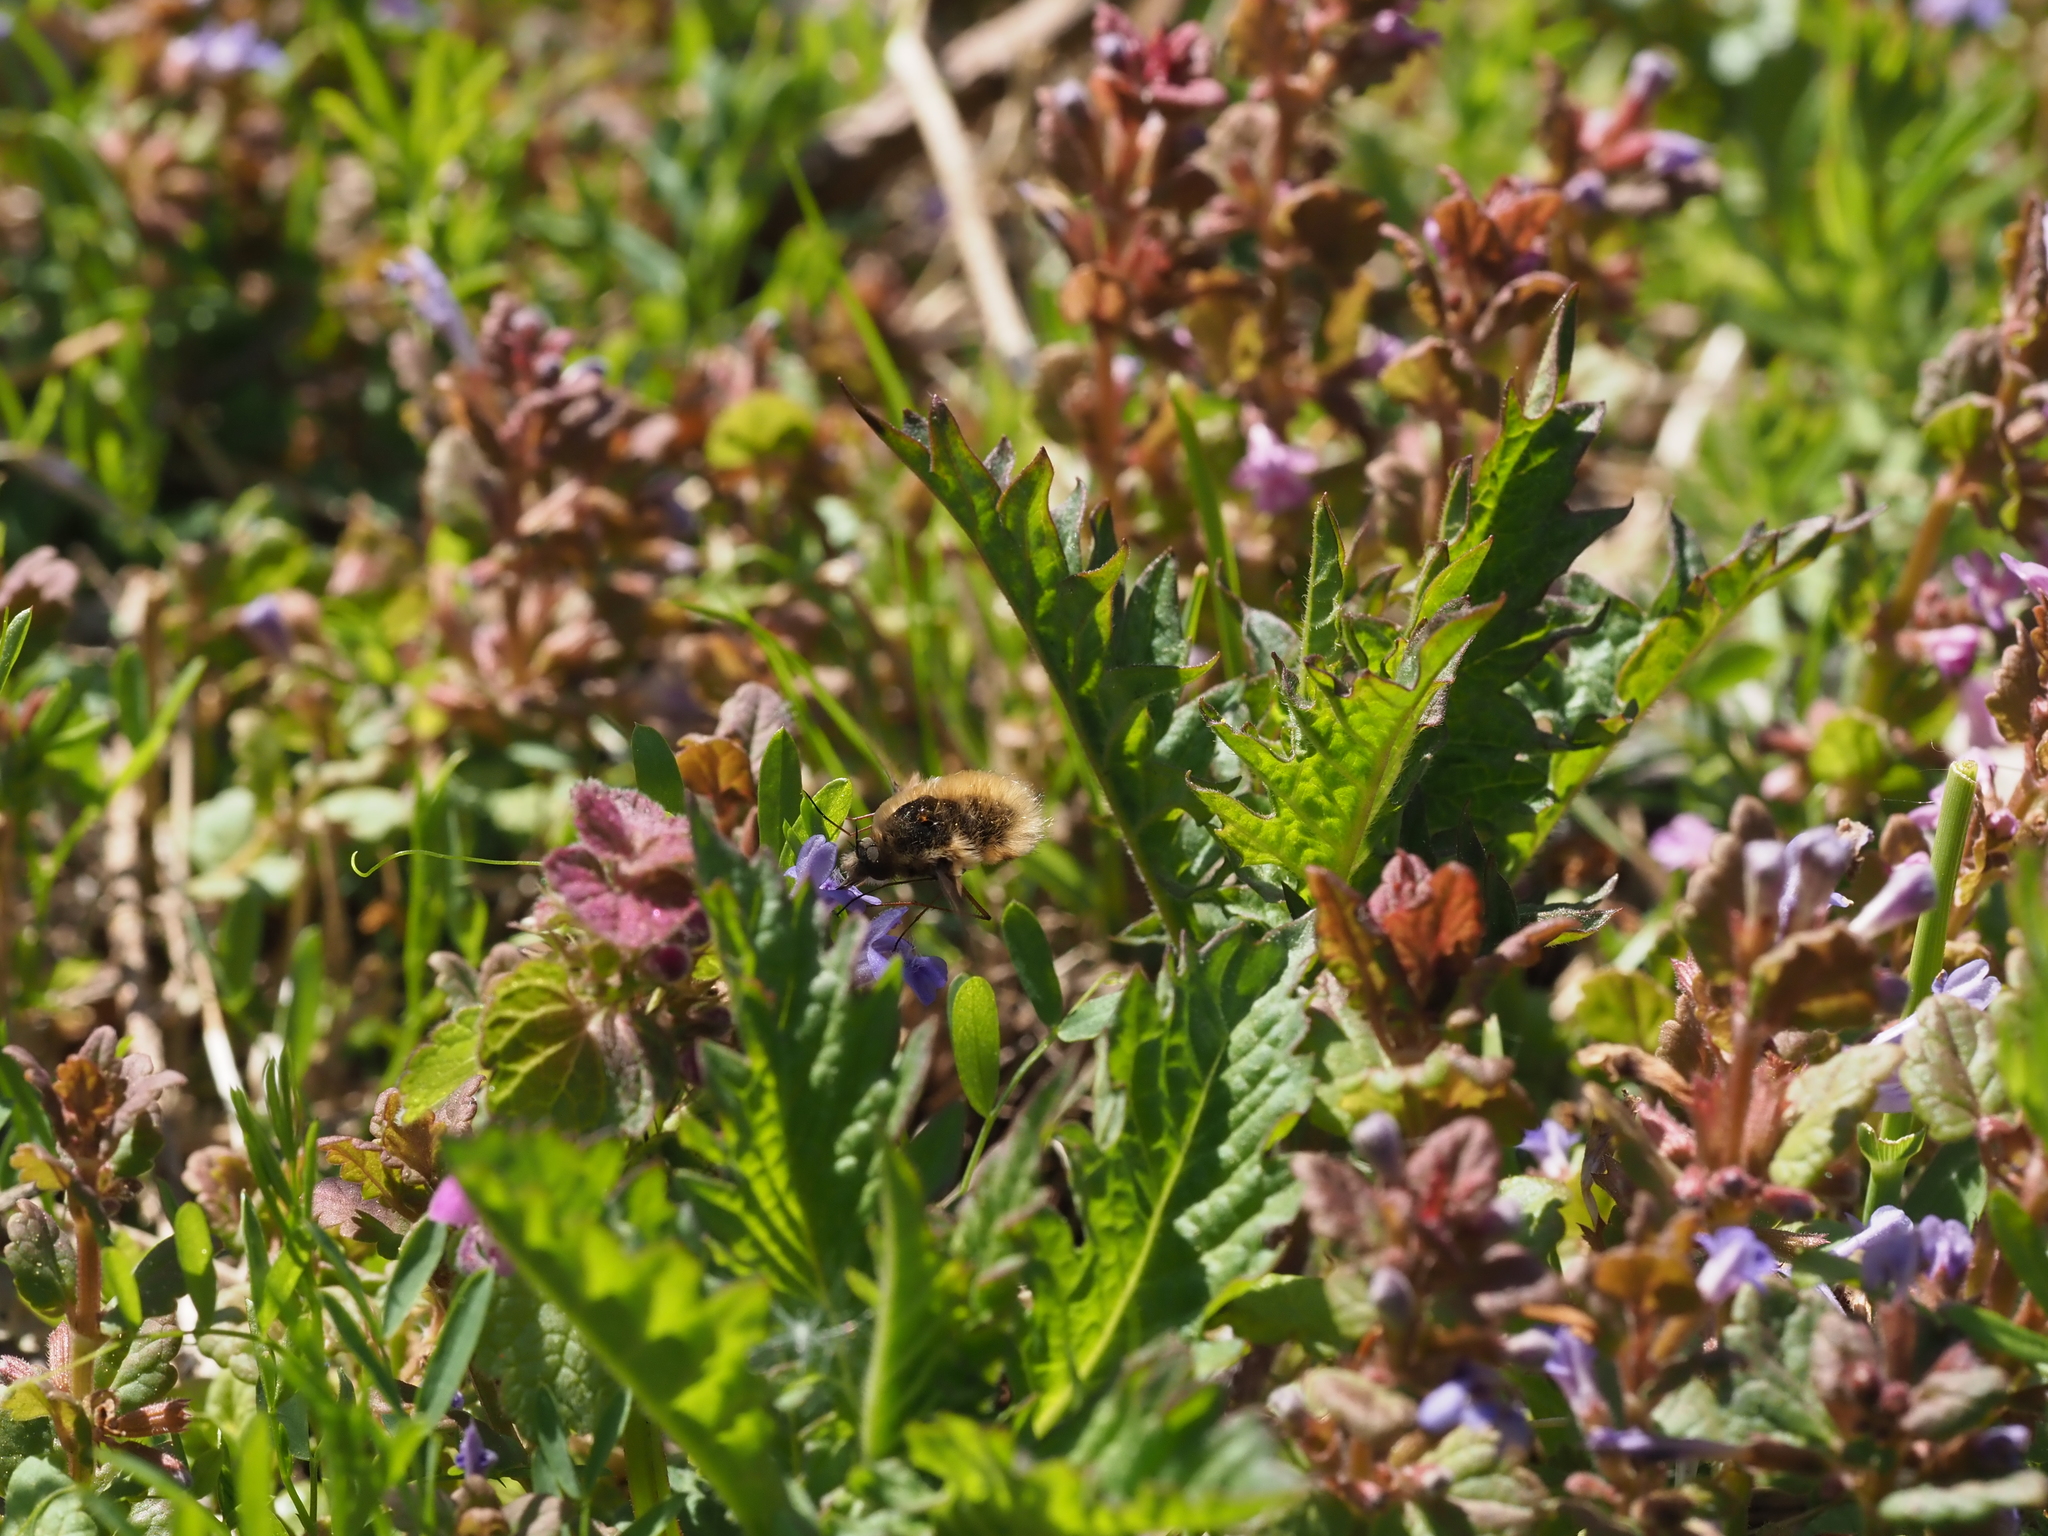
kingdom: Animalia
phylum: Arthropoda
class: Insecta
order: Diptera
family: Bombyliidae
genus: Bombylius
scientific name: Bombylius major
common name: Bee fly
